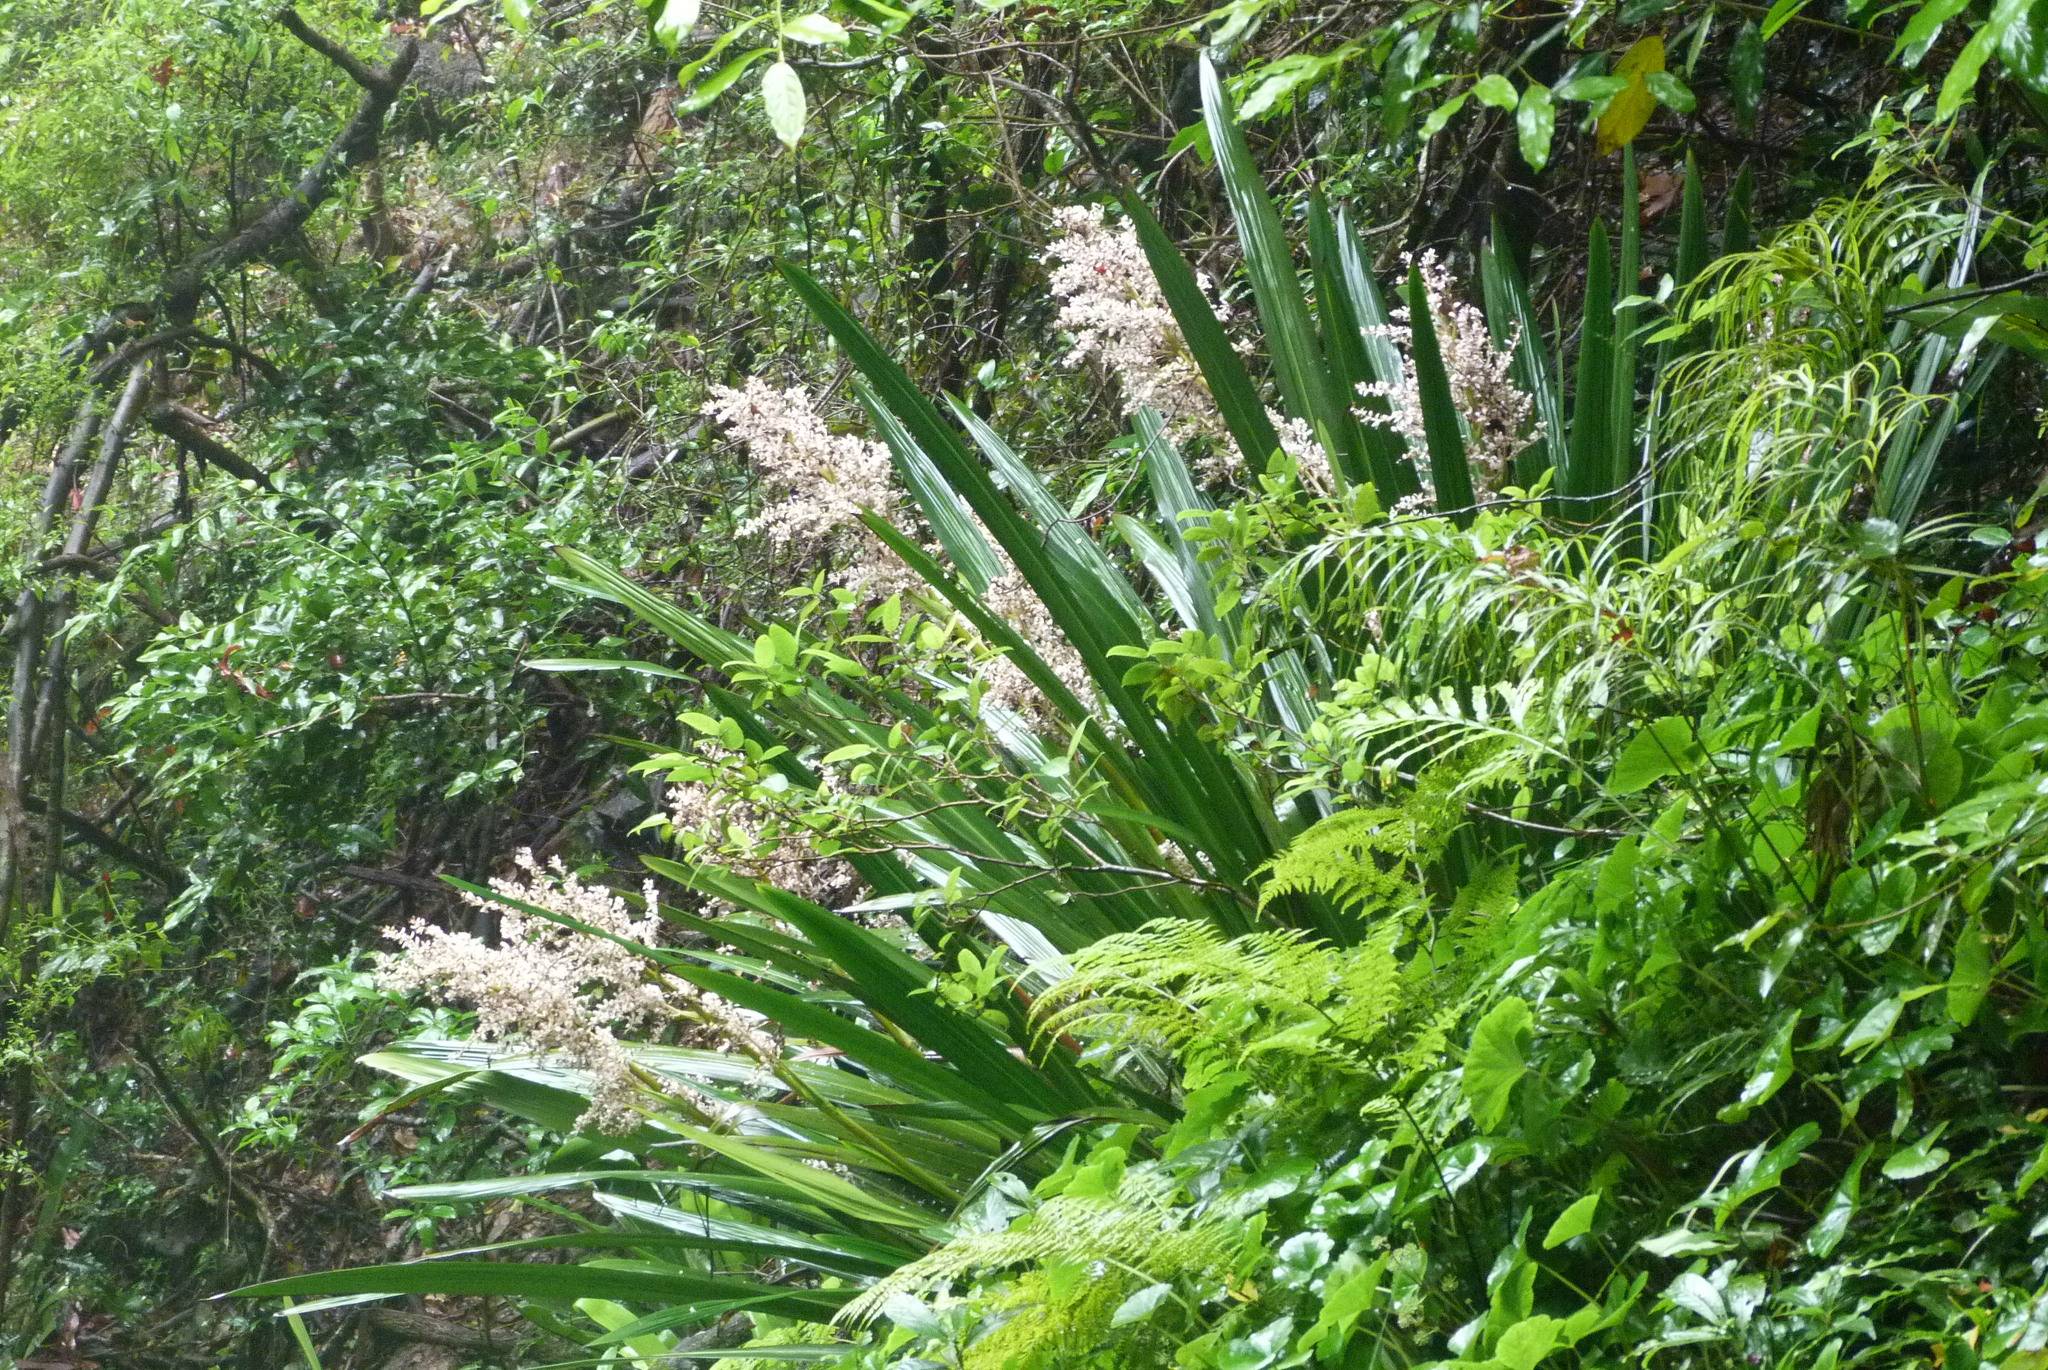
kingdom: Plantae
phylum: Tracheophyta
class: Liliopsida
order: Commelinales
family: Philydraceae
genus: Helmholtzia
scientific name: Helmholtzia glaberrima
